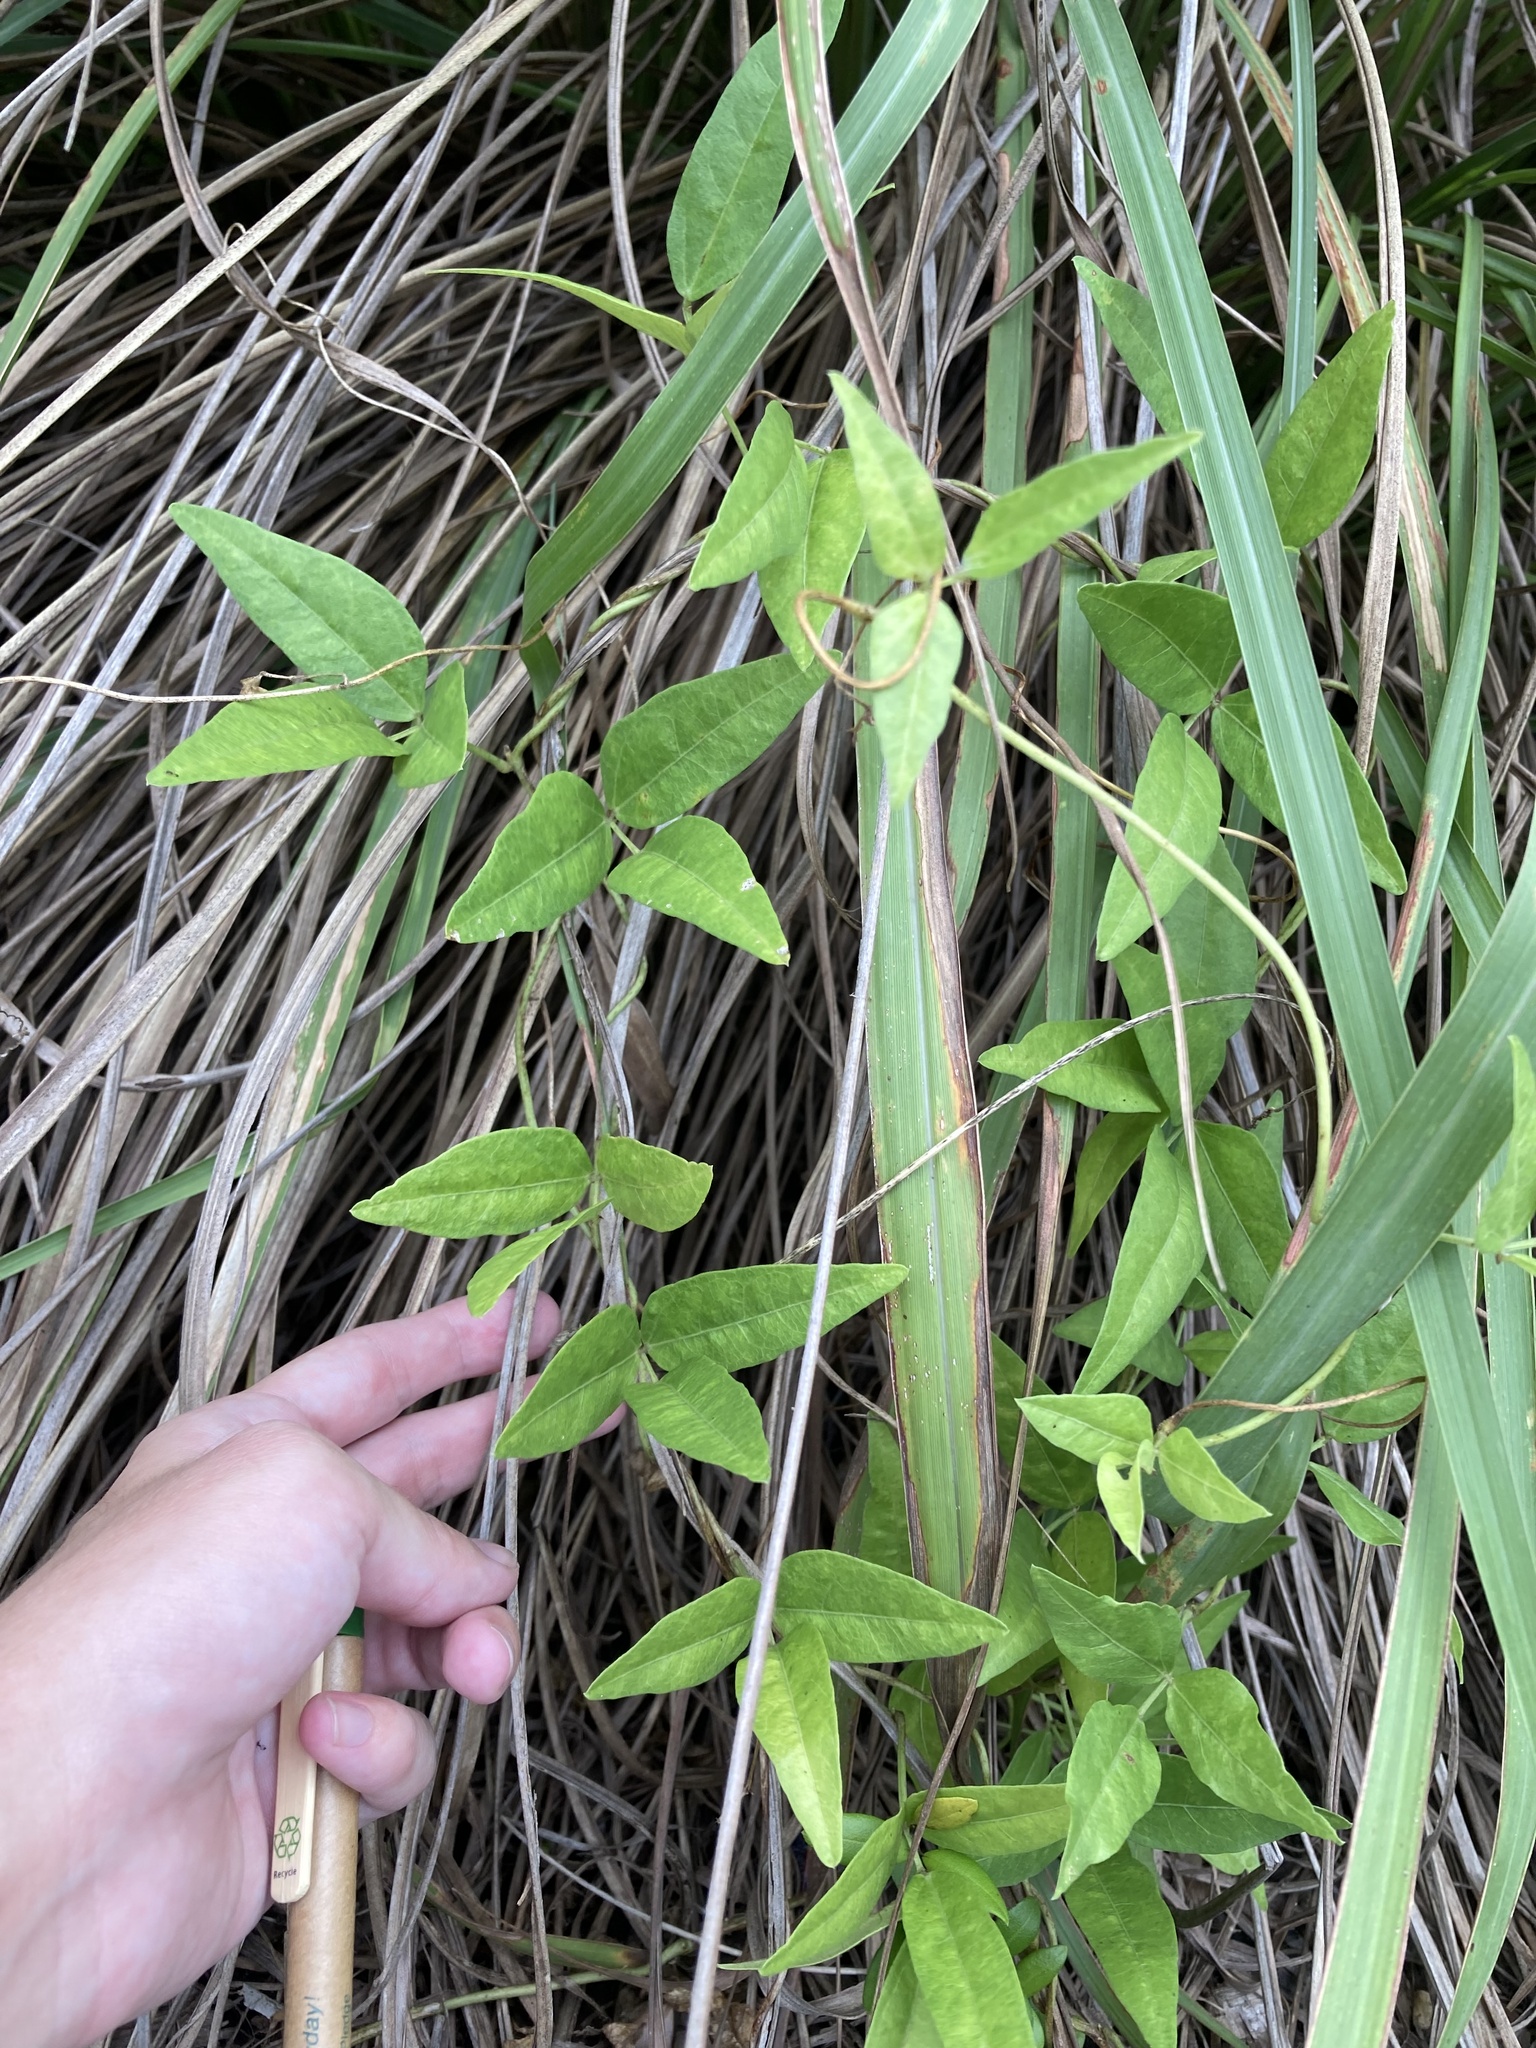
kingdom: Plantae
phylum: Tracheophyta
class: Magnoliopsida
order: Fabales
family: Fabaceae
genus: Vigna
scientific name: Vigna luteola
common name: Hairypod cowpea
